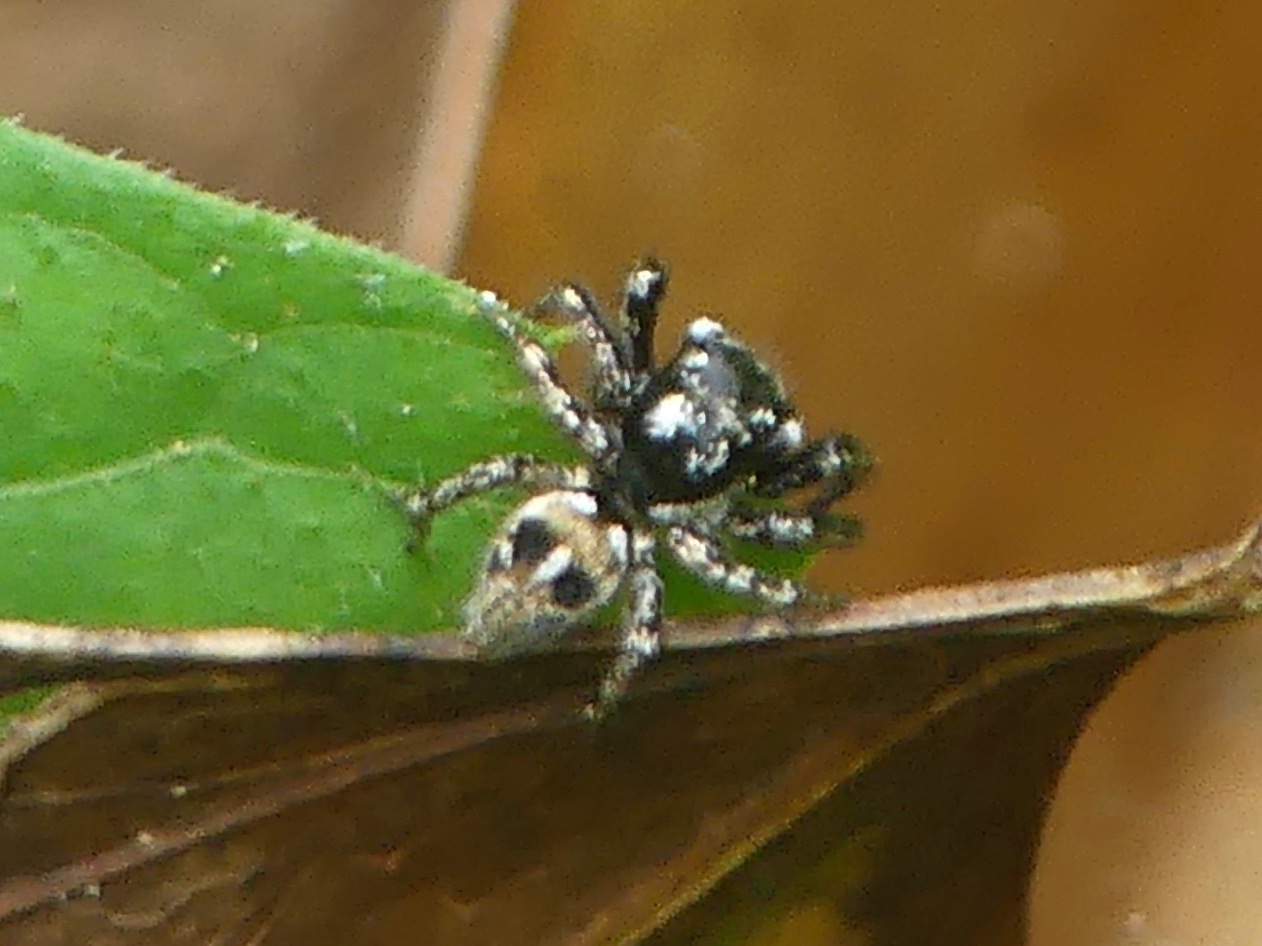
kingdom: Animalia
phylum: Arthropoda
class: Arachnida
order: Araneae
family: Salticidae
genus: Anasaitis
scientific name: Anasaitis canosa
